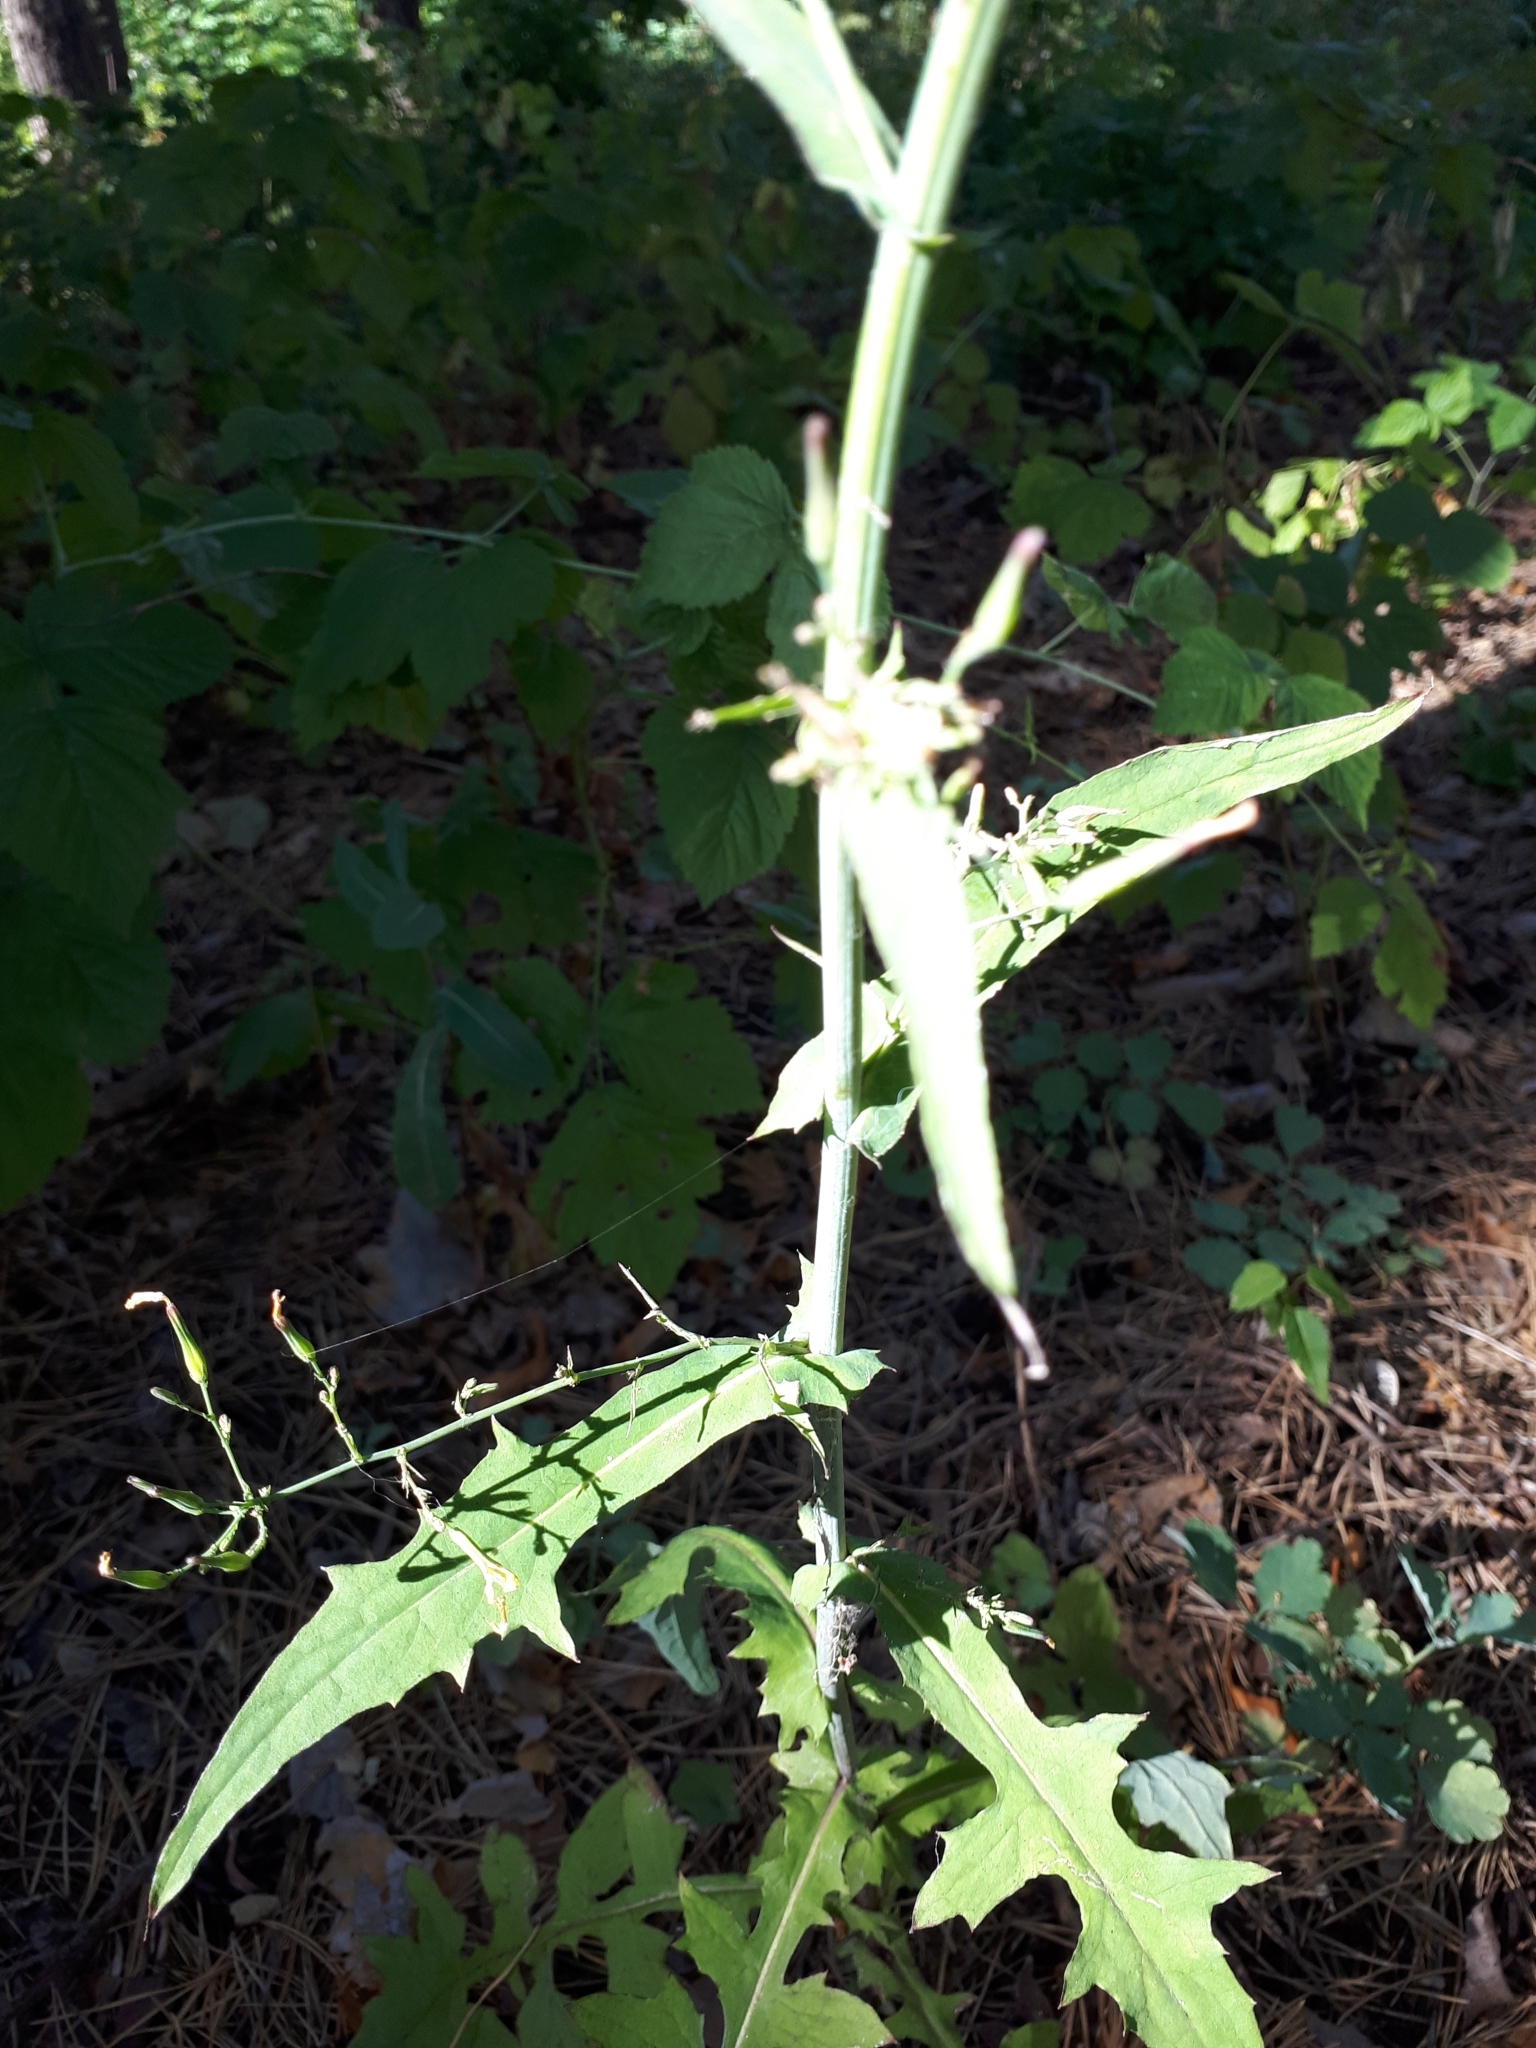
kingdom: Plantae
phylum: Tracheophyta
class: Magnoliopsida
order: Asterales
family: Asteraceae
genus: Mycelis
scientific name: Mycelis muralis
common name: Wall lettuce
